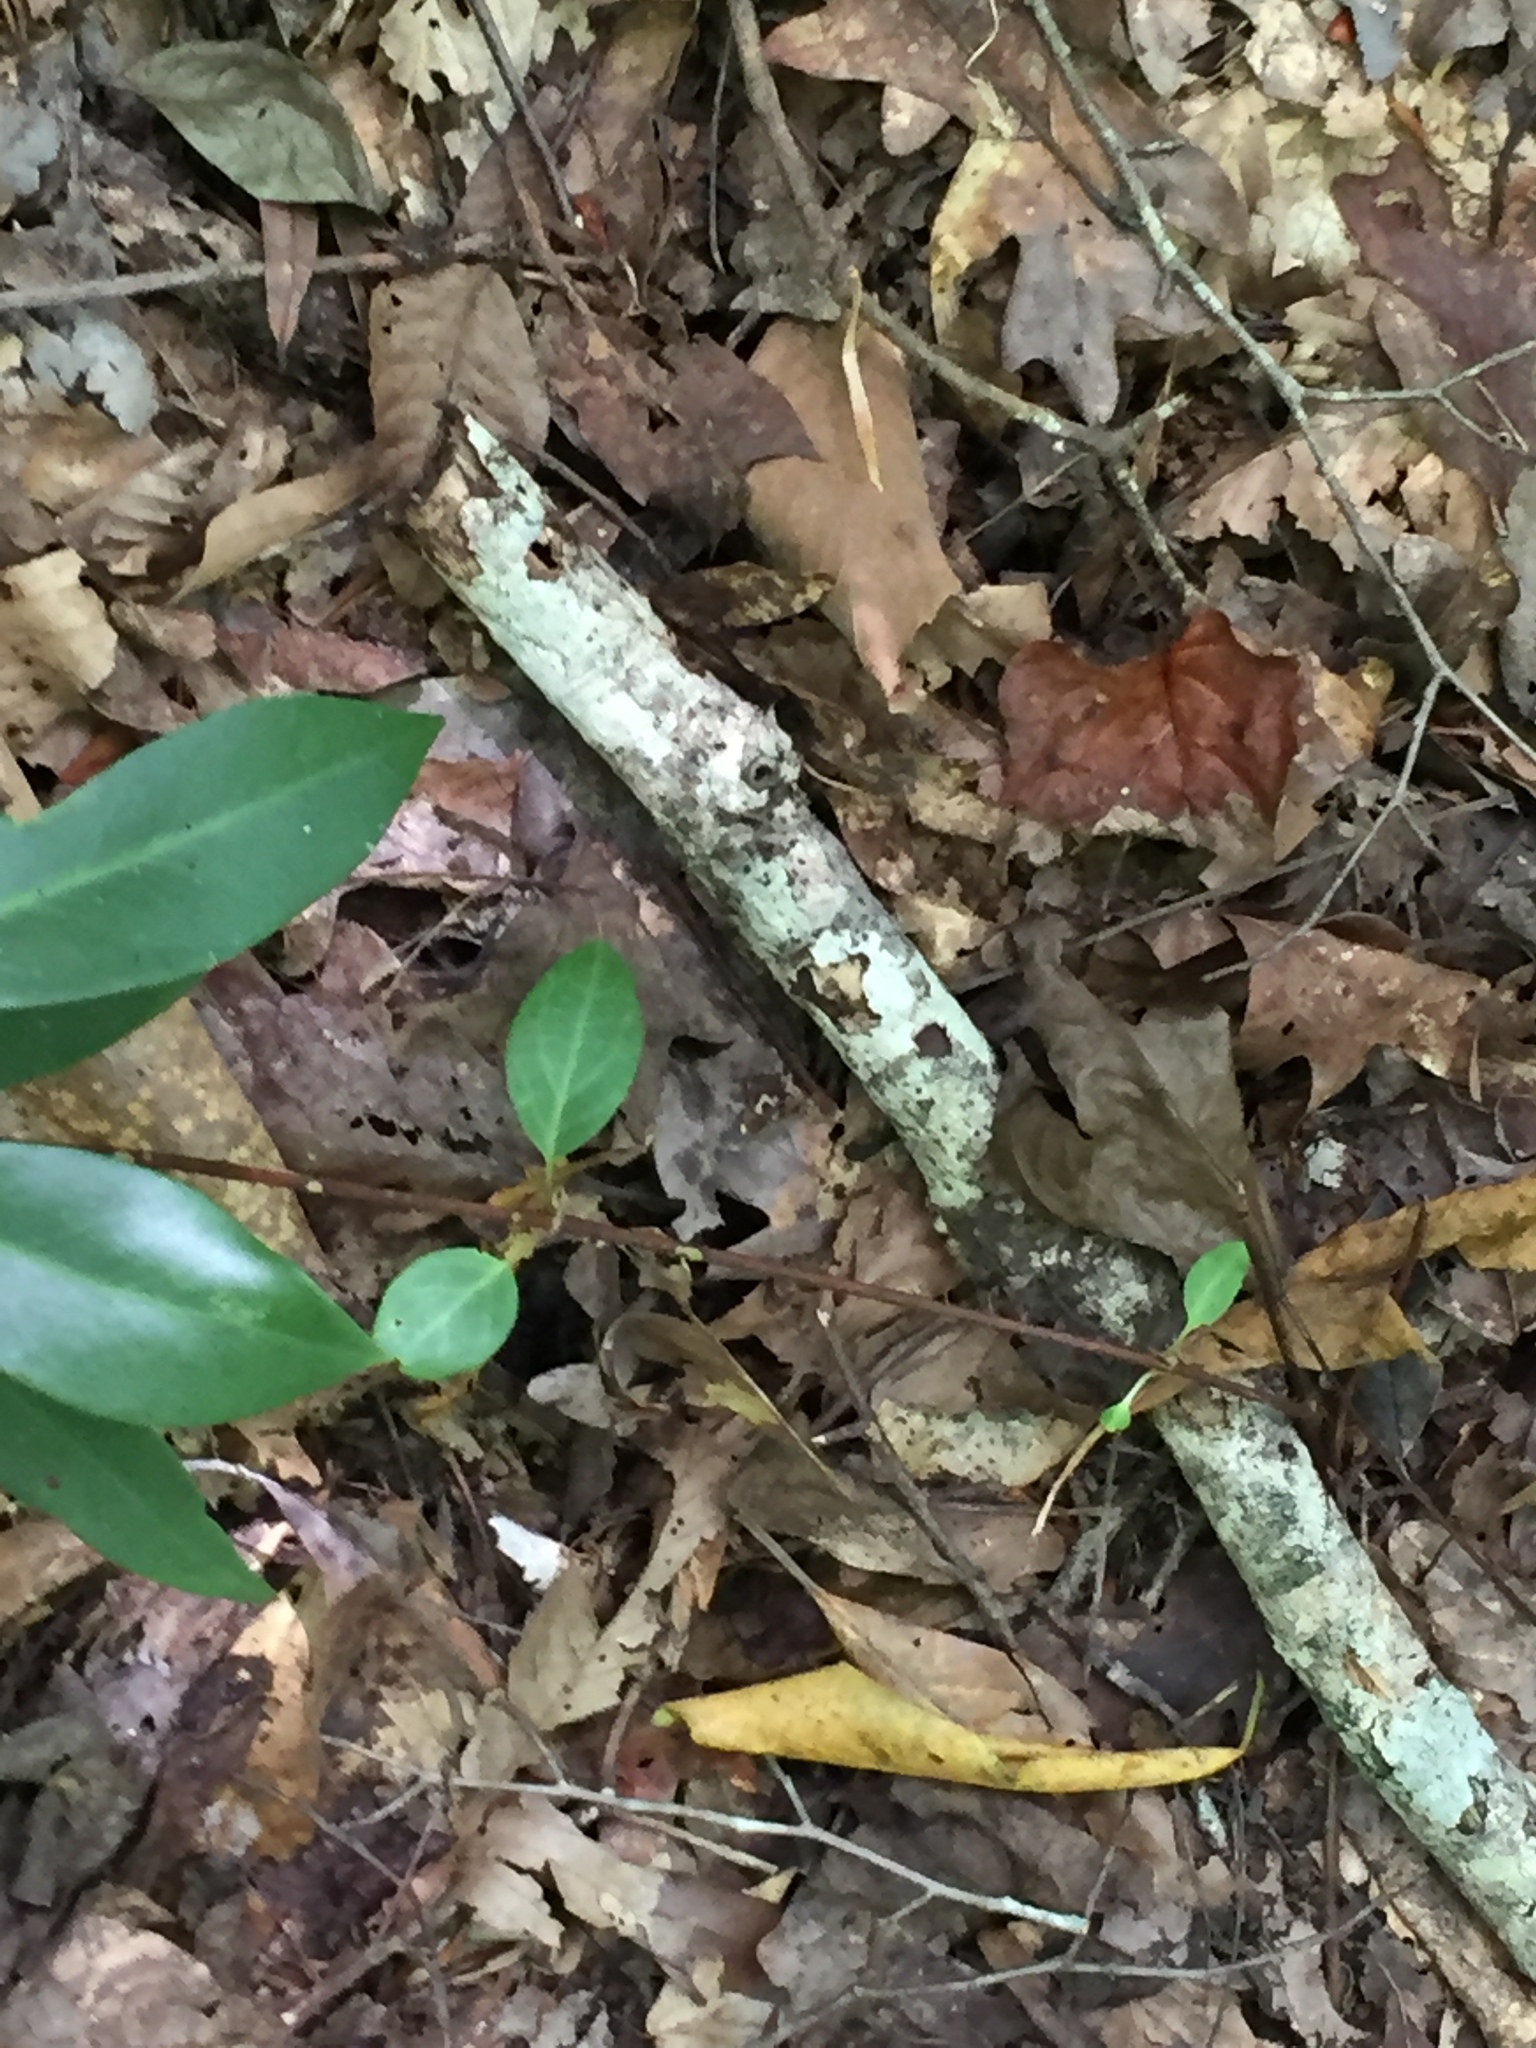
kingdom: Plantae
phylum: Tracheophyta
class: Magnoliopsida
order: Cornales
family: Hydrangeaceae
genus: Hydrangea
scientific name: Hydrangea barbara
